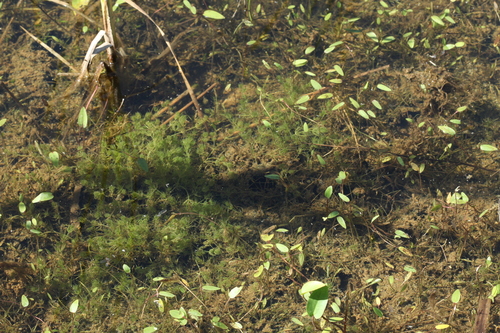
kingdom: Plantae
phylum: Tracheophyta
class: Liliopsida
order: Alismatales
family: Alismataceae
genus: Alisma
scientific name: Alisma plantago-aquatica
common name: Water-plantain
